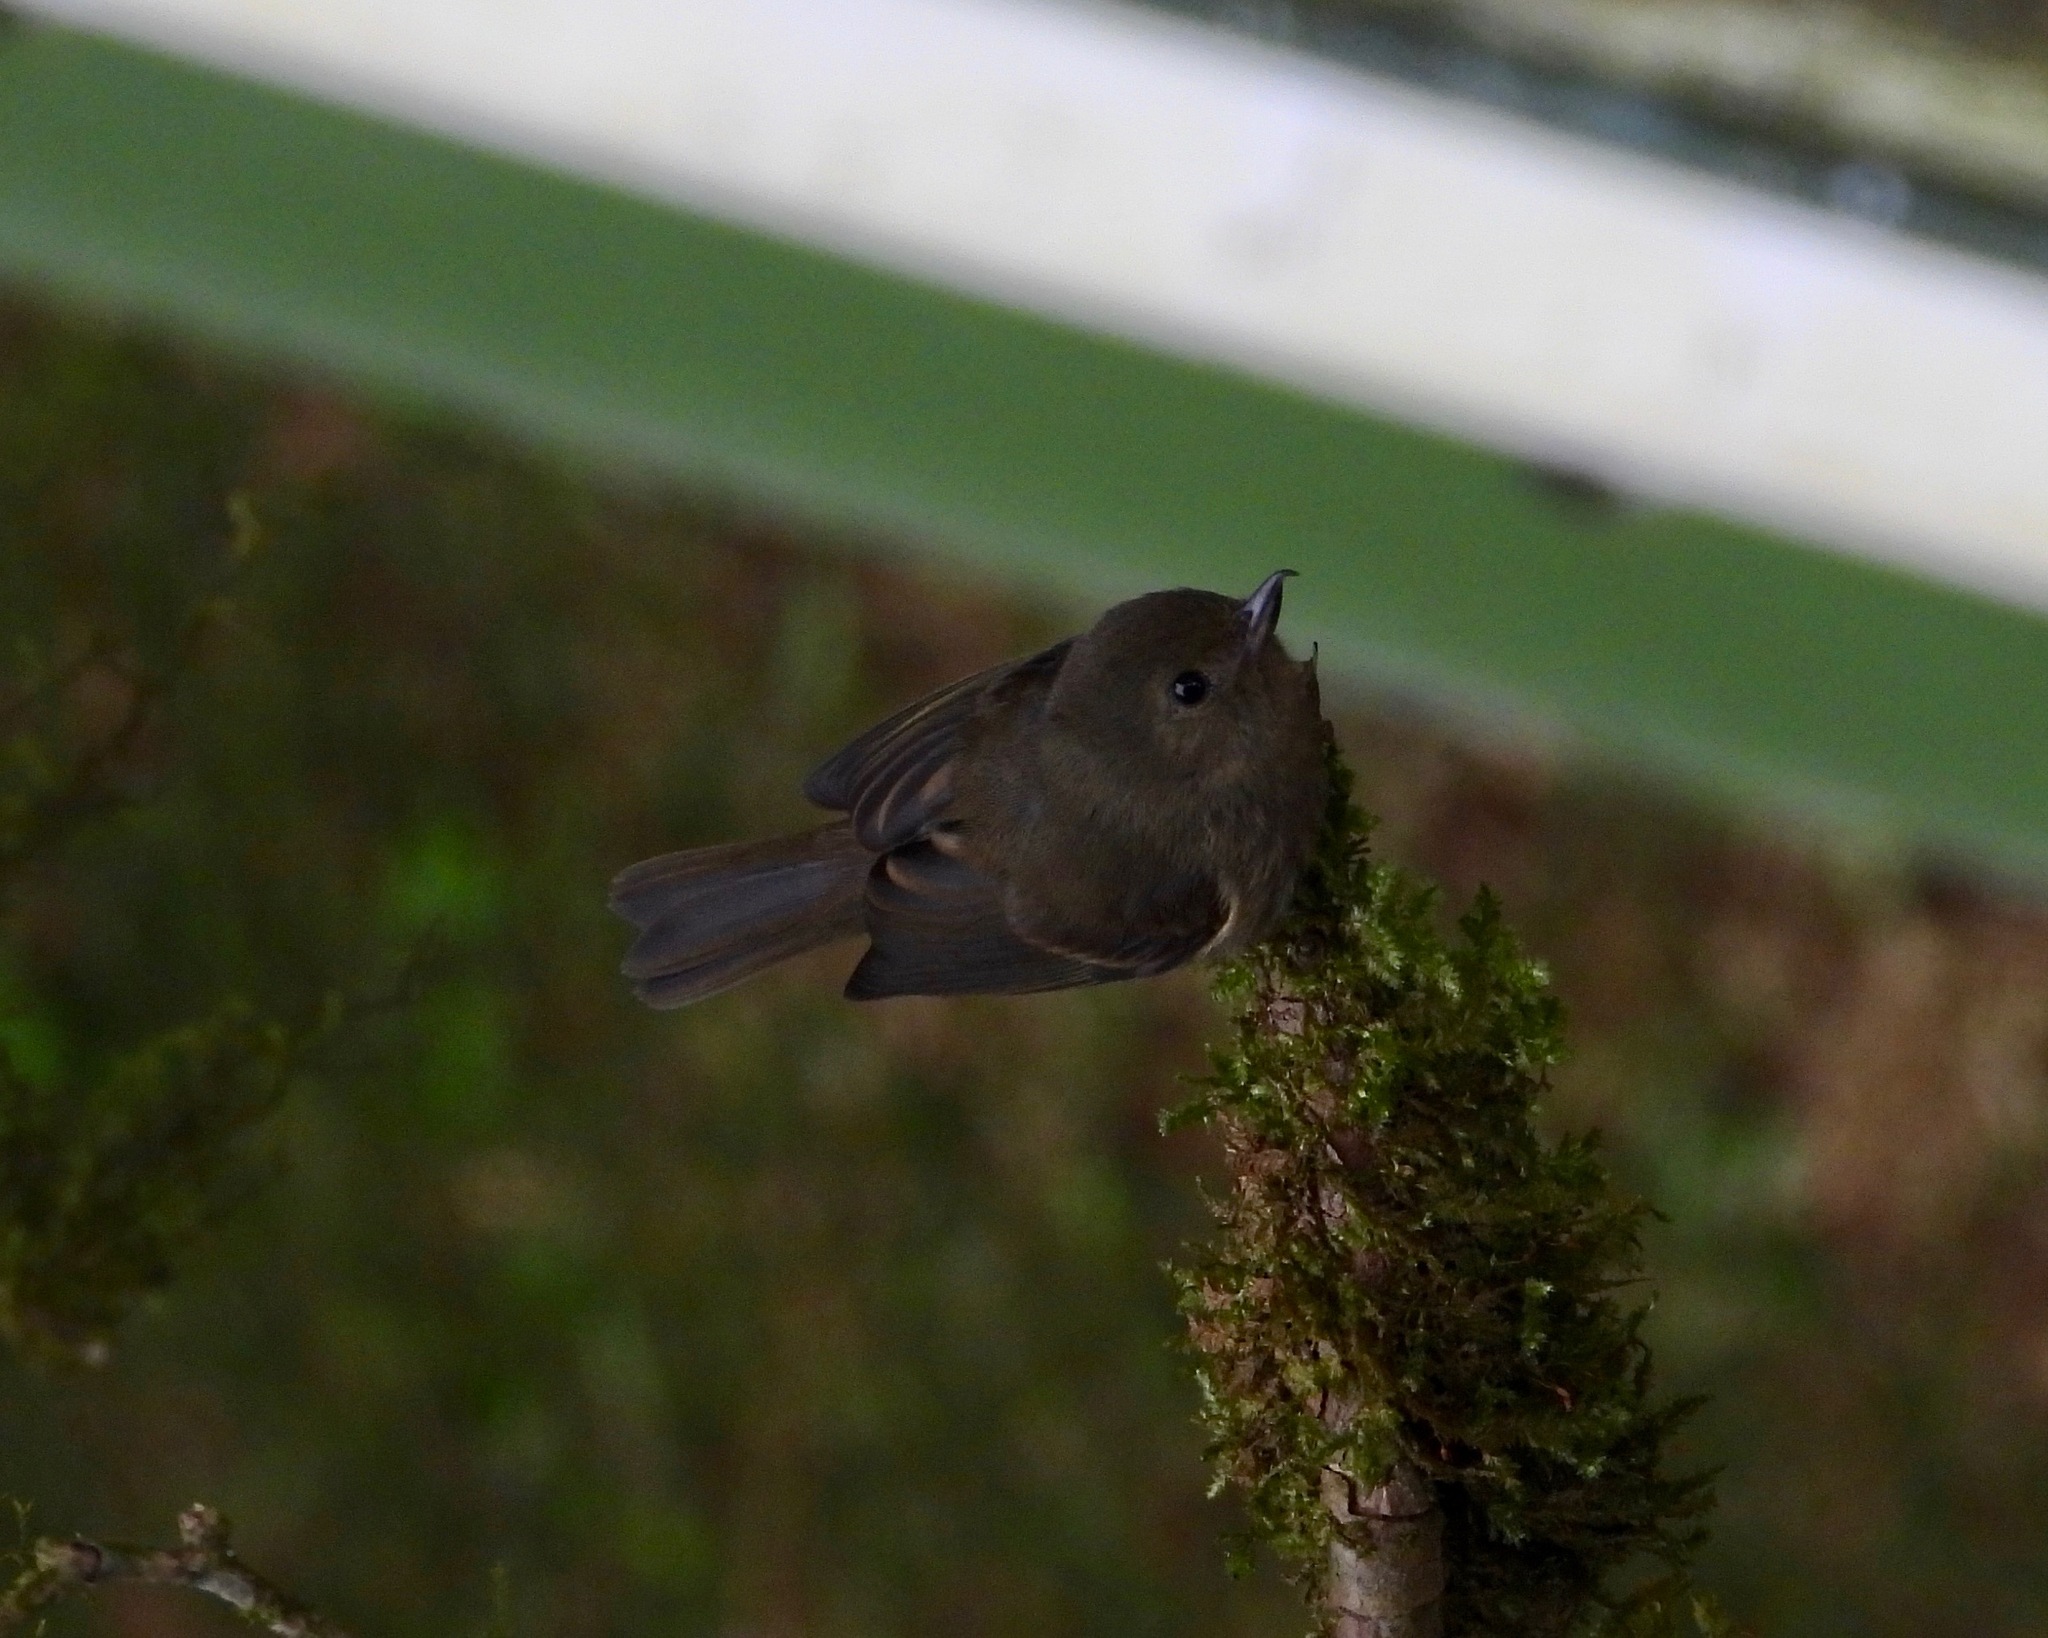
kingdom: Animalia
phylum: Chordata
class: Aves
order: Passeriformes
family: Thraupidae
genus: Diglossa
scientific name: Diglossa baritula
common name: Cinnamon-bellied flowerpiercer
